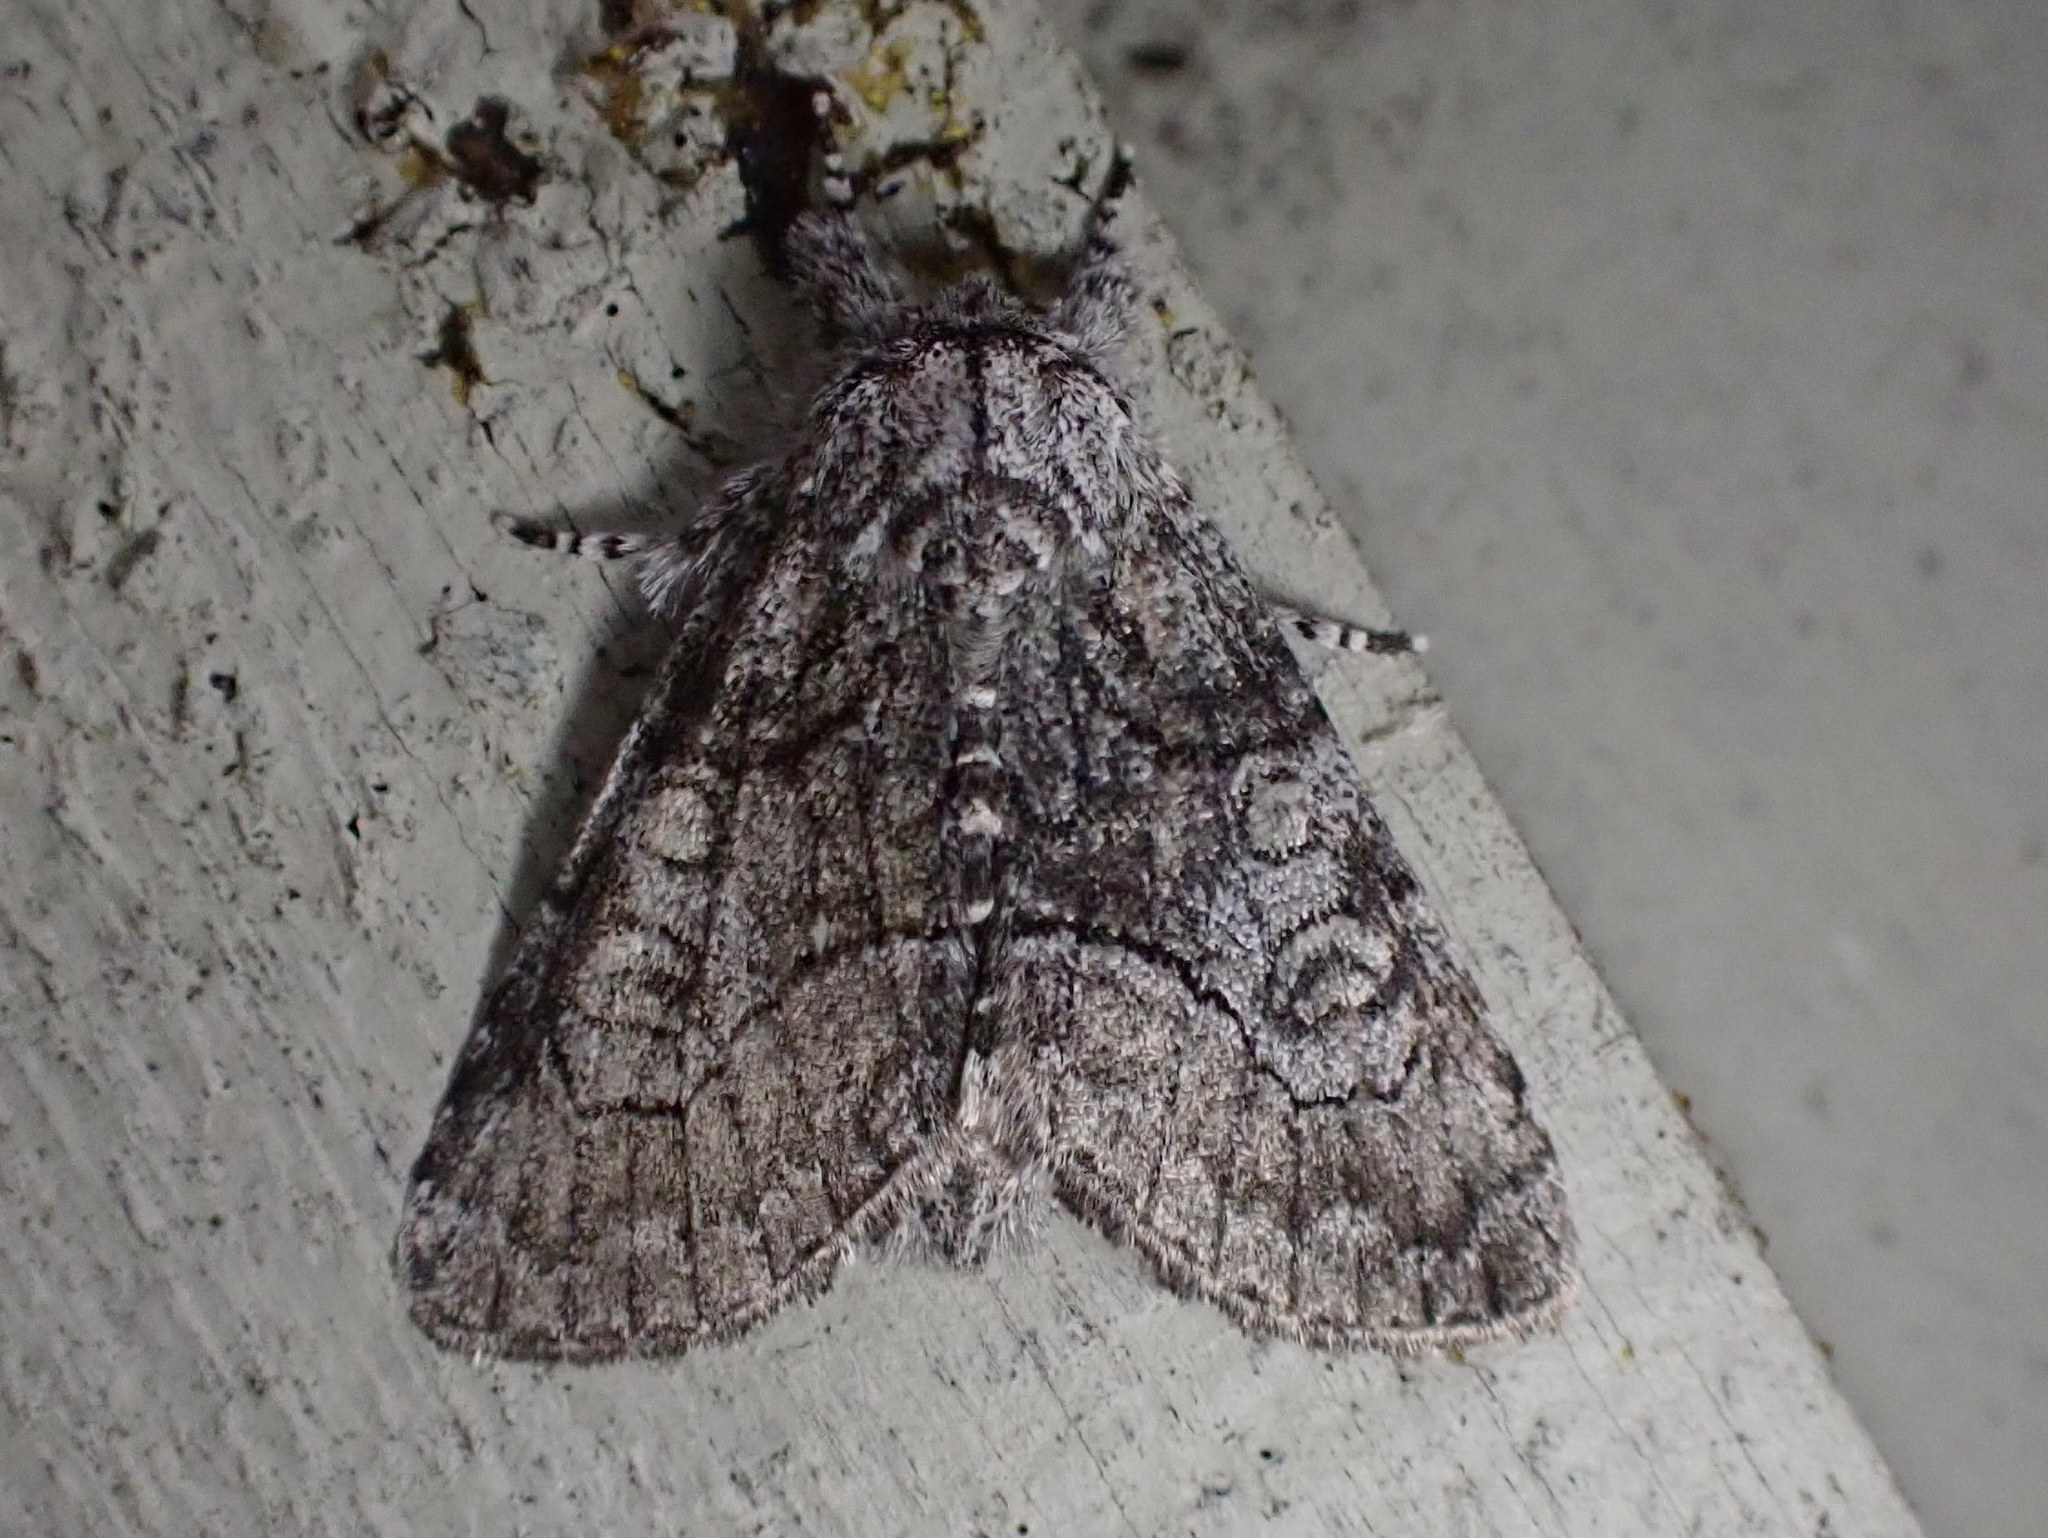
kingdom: Animalia
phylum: Arthropoda
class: Insecta
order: Lepidoptera
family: Noctuidae
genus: Raphia
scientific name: Raphia frater
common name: Brother
